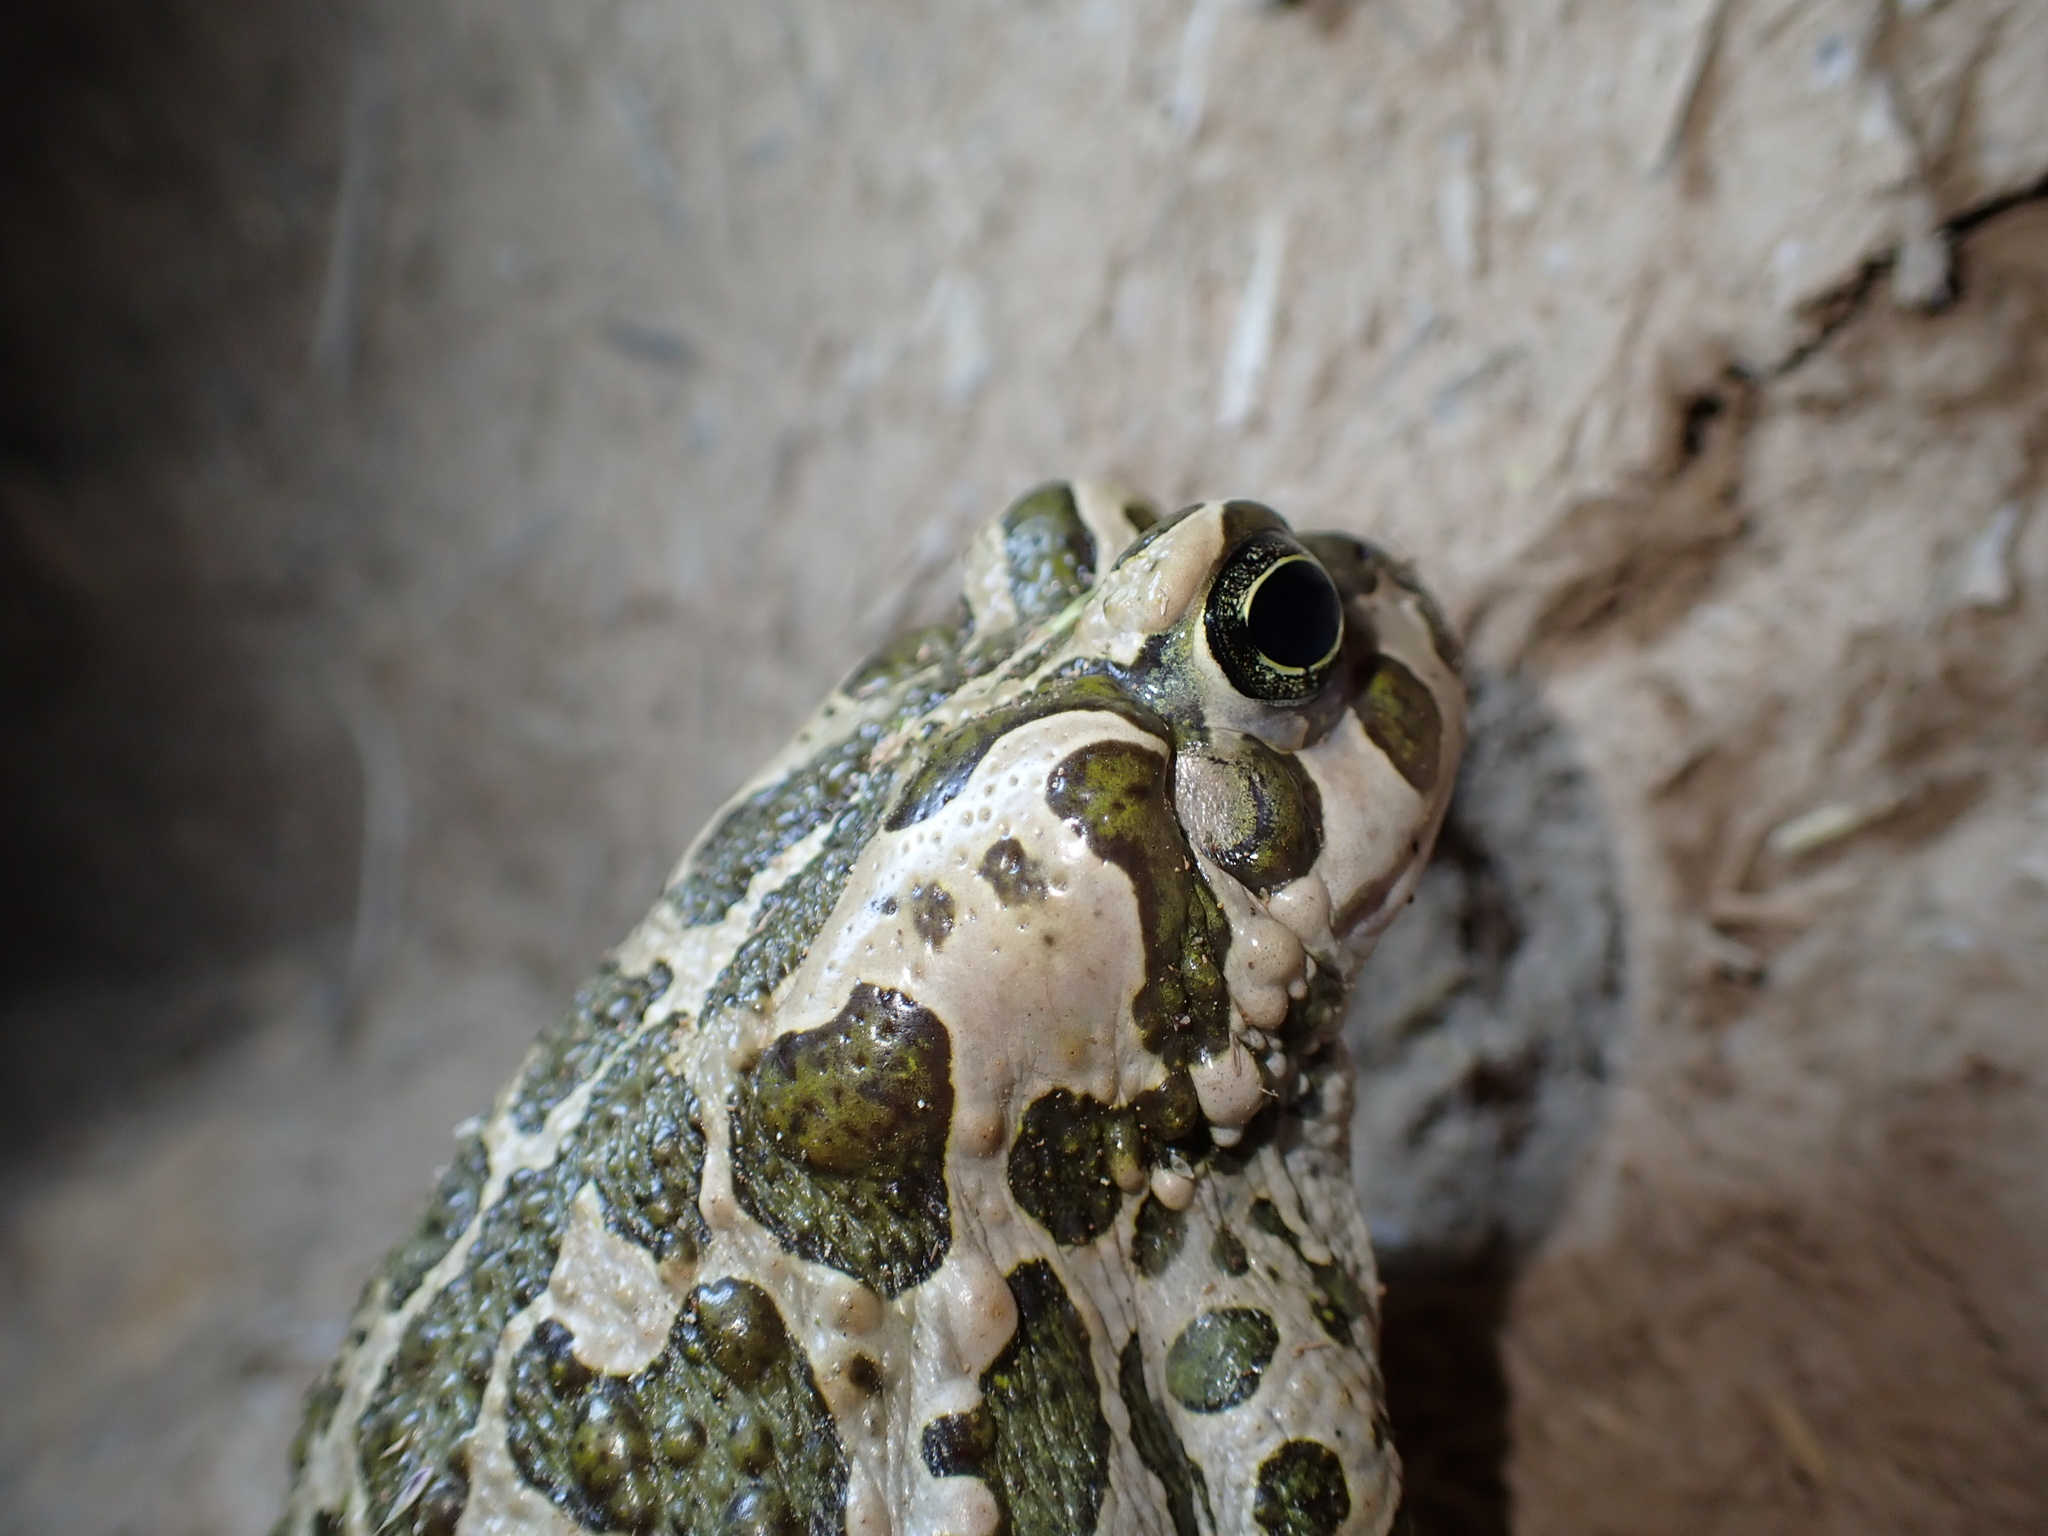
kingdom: Animalia
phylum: Chordata
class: Amphibia
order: Anura
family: Bufonidae
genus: Bufotes
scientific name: Bufotes viridis
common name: European green toad
